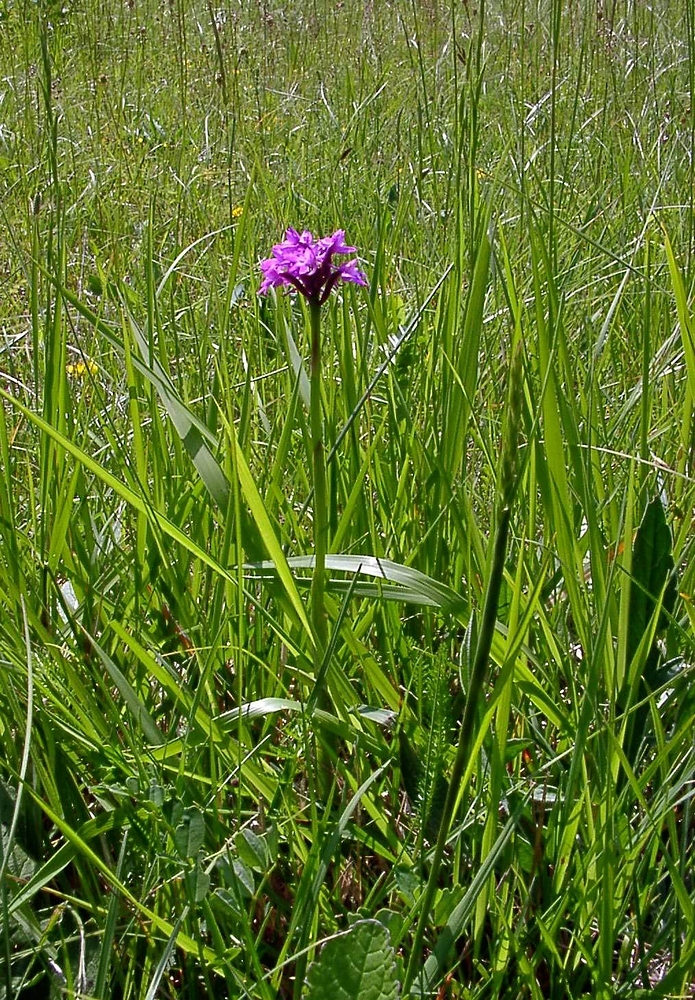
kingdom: Plantae
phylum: Tracheophyta
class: Liliopsida
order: Asparagales
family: Orchidaceae
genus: Anacamptis
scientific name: Anacamptis pyramidalis
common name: Pyramidal orchid
